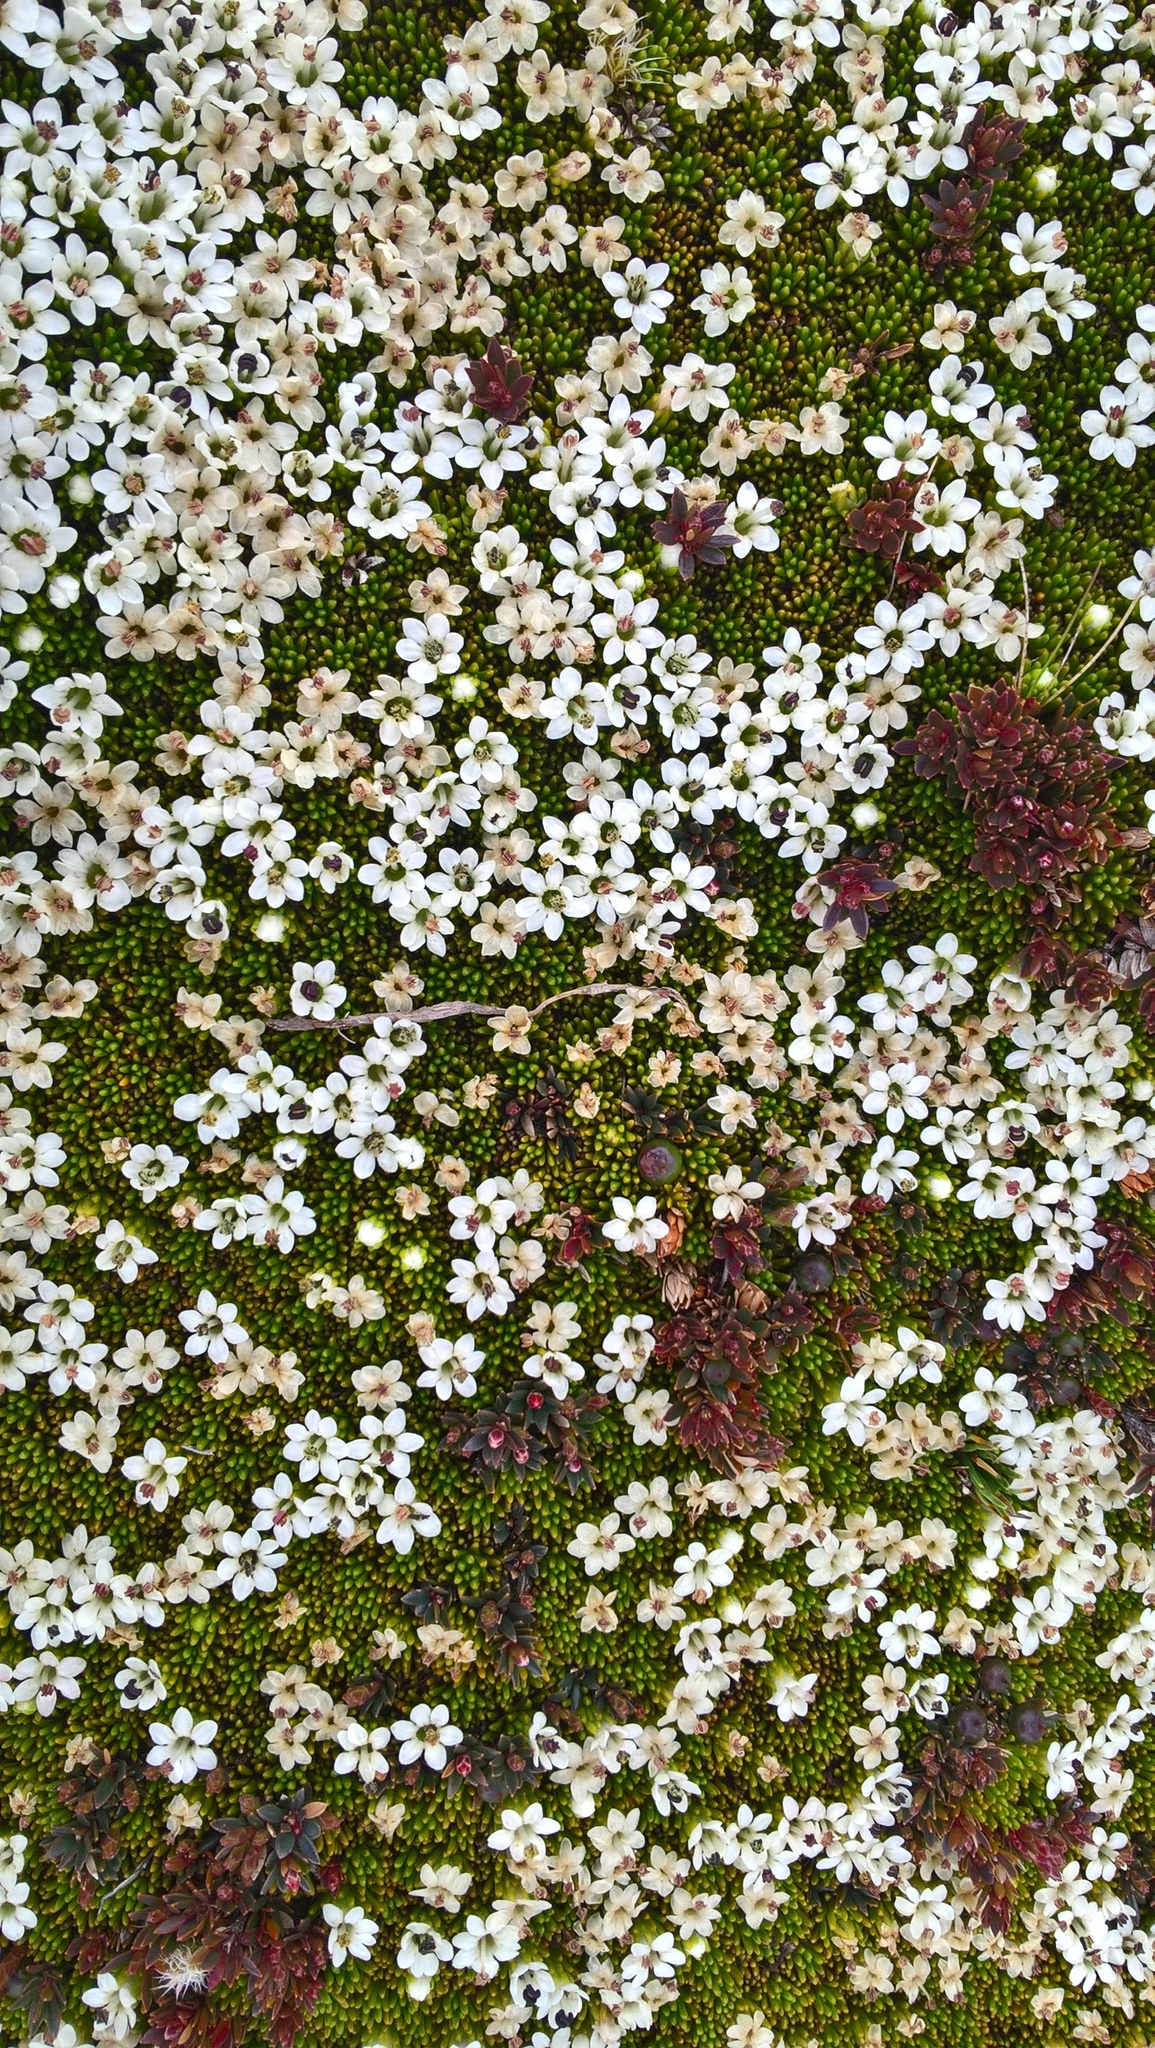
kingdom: Plantae
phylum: Tracheophyta
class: Magnoliopsida
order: Asterales
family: Stylidiaceae
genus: Phyllachne
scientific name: Phyllachne colensoi
